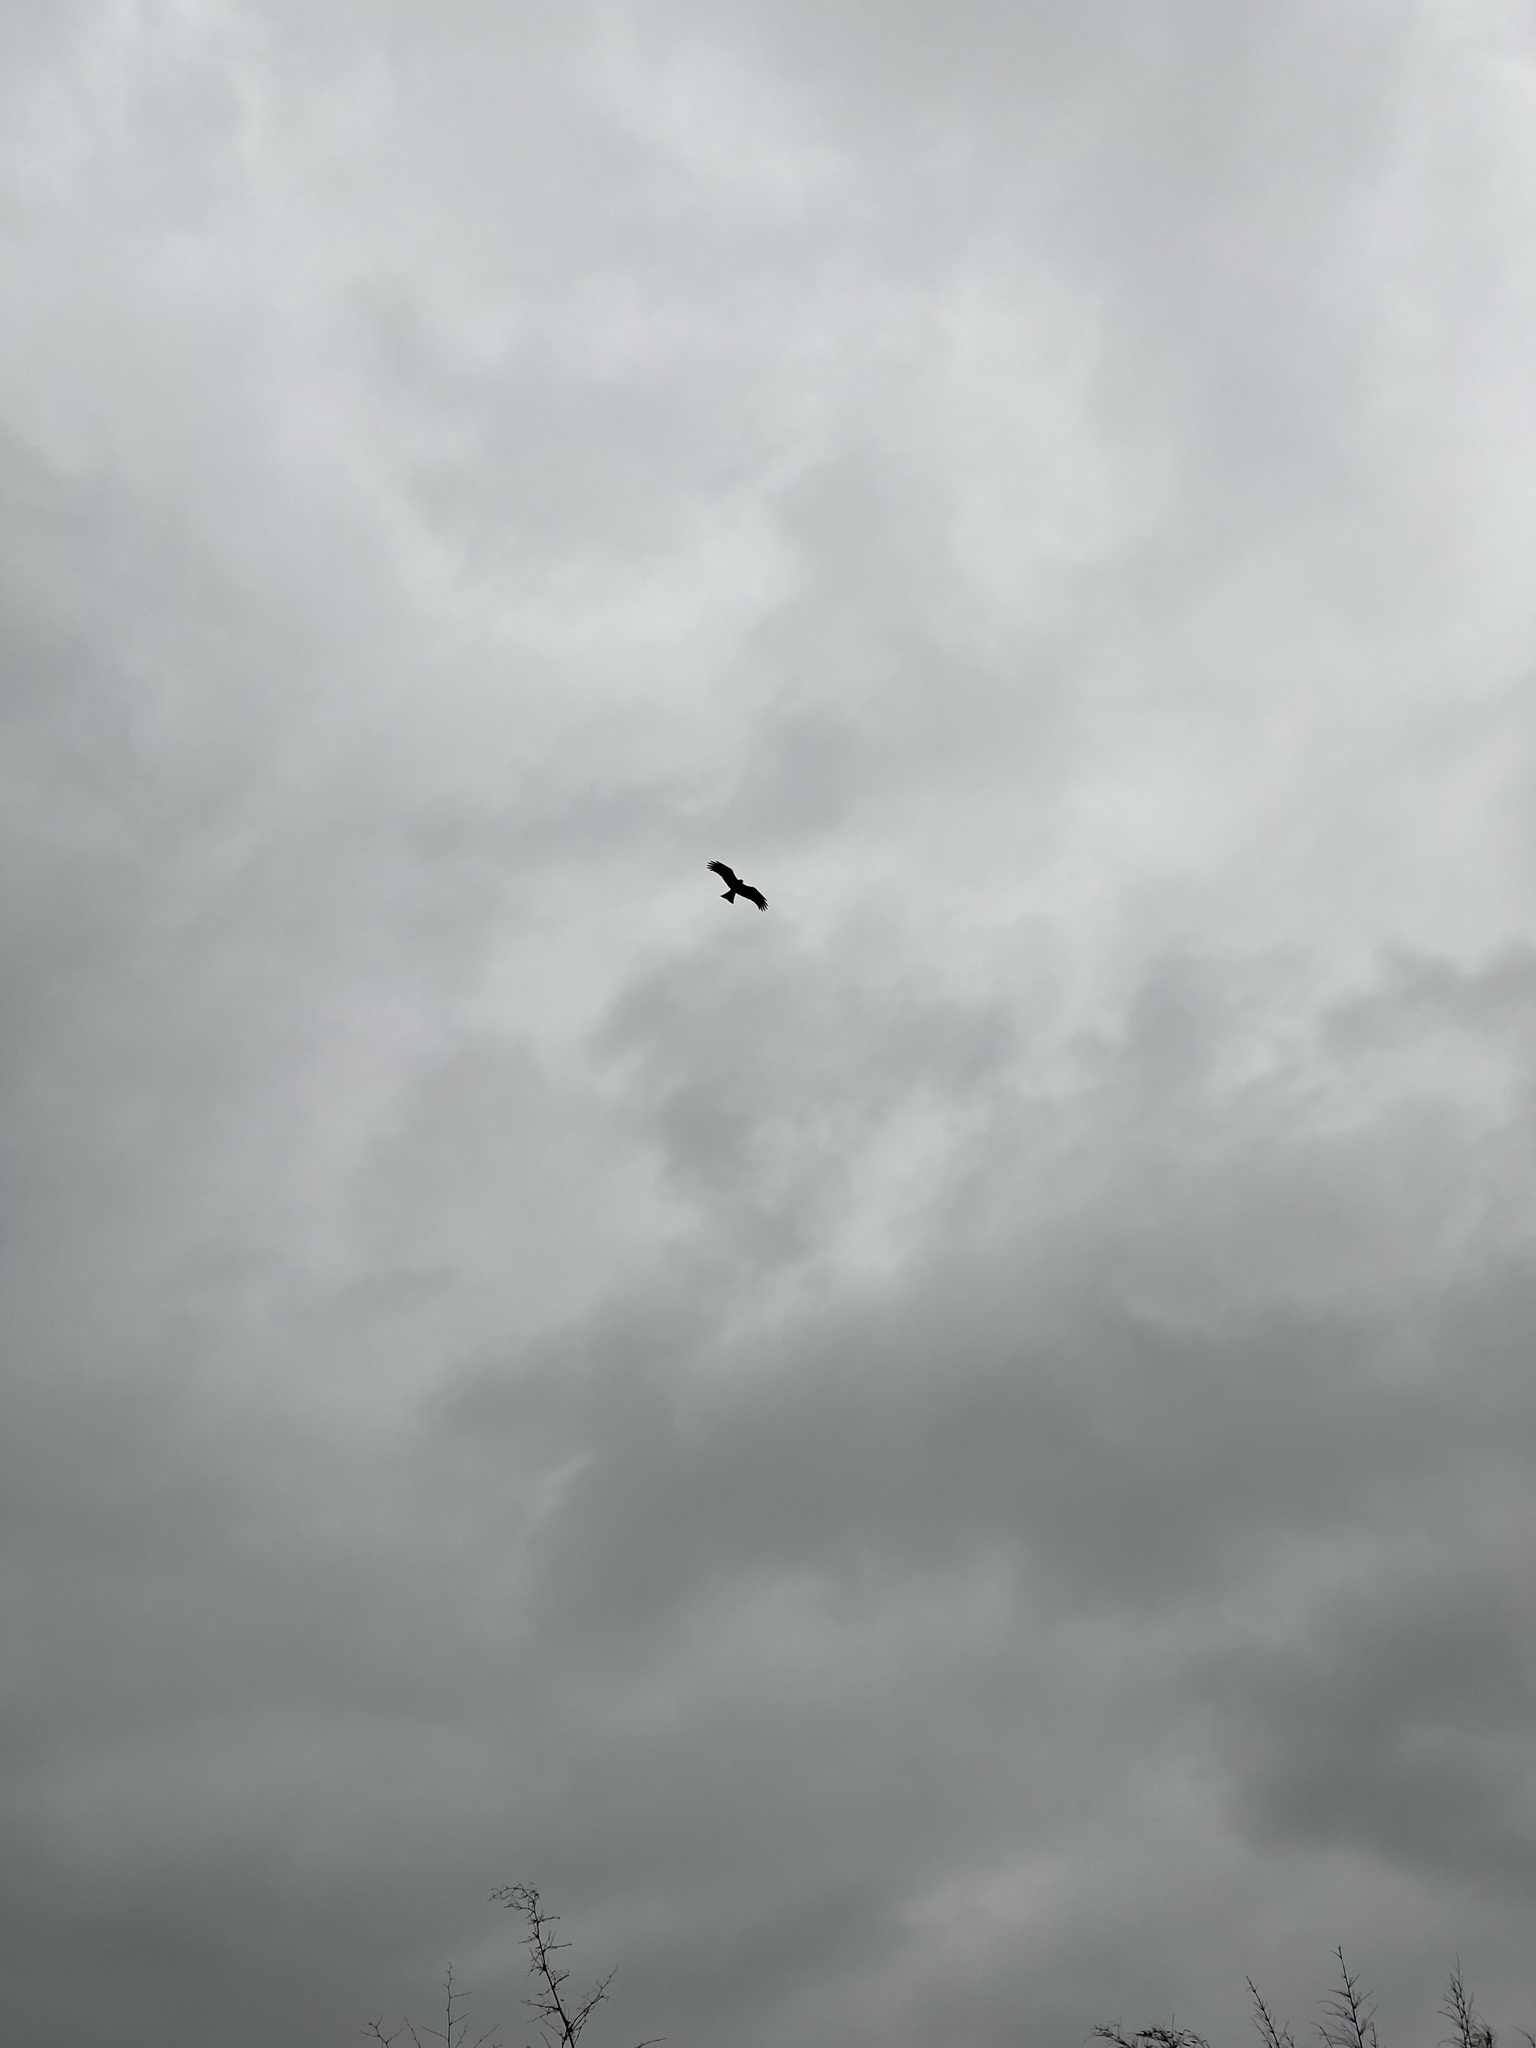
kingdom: Animalia
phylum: Chordata
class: Aves
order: Accipitriformes
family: Accipitridae
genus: Milvus
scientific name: Milvus migrans
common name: Black kite
